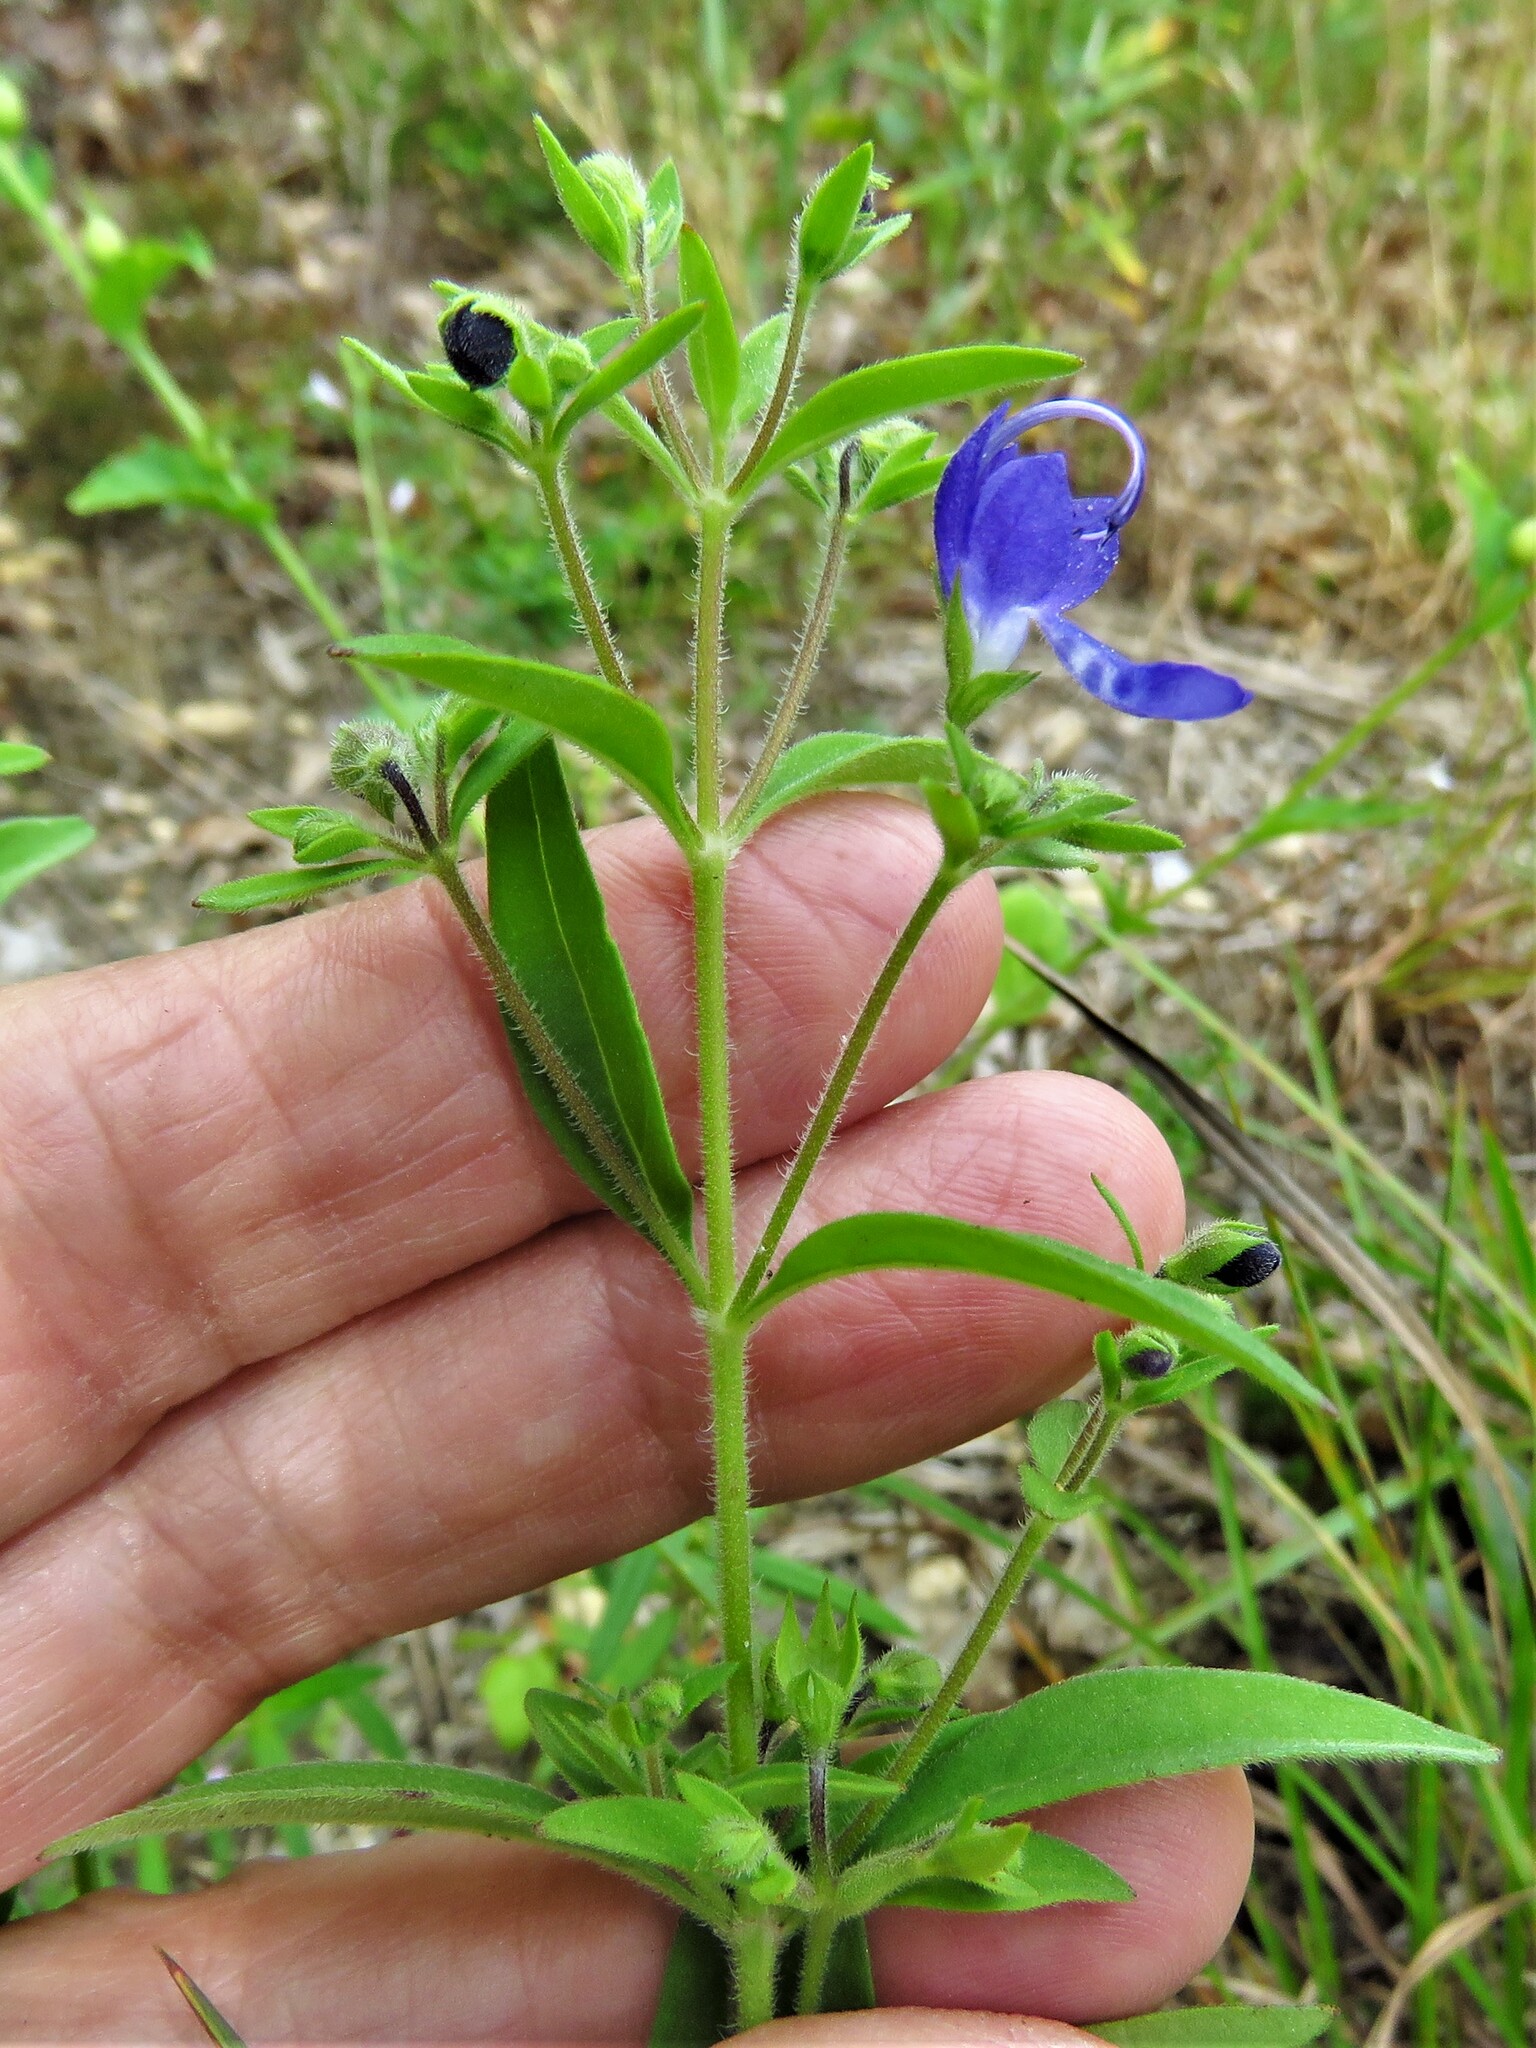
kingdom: Plantae
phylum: Tracheophyta
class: Magnoliopsida
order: Lamiales
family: Lamiaceae
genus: Trichostema
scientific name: Trichostema dichotomum
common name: Bastard pennyroyal
